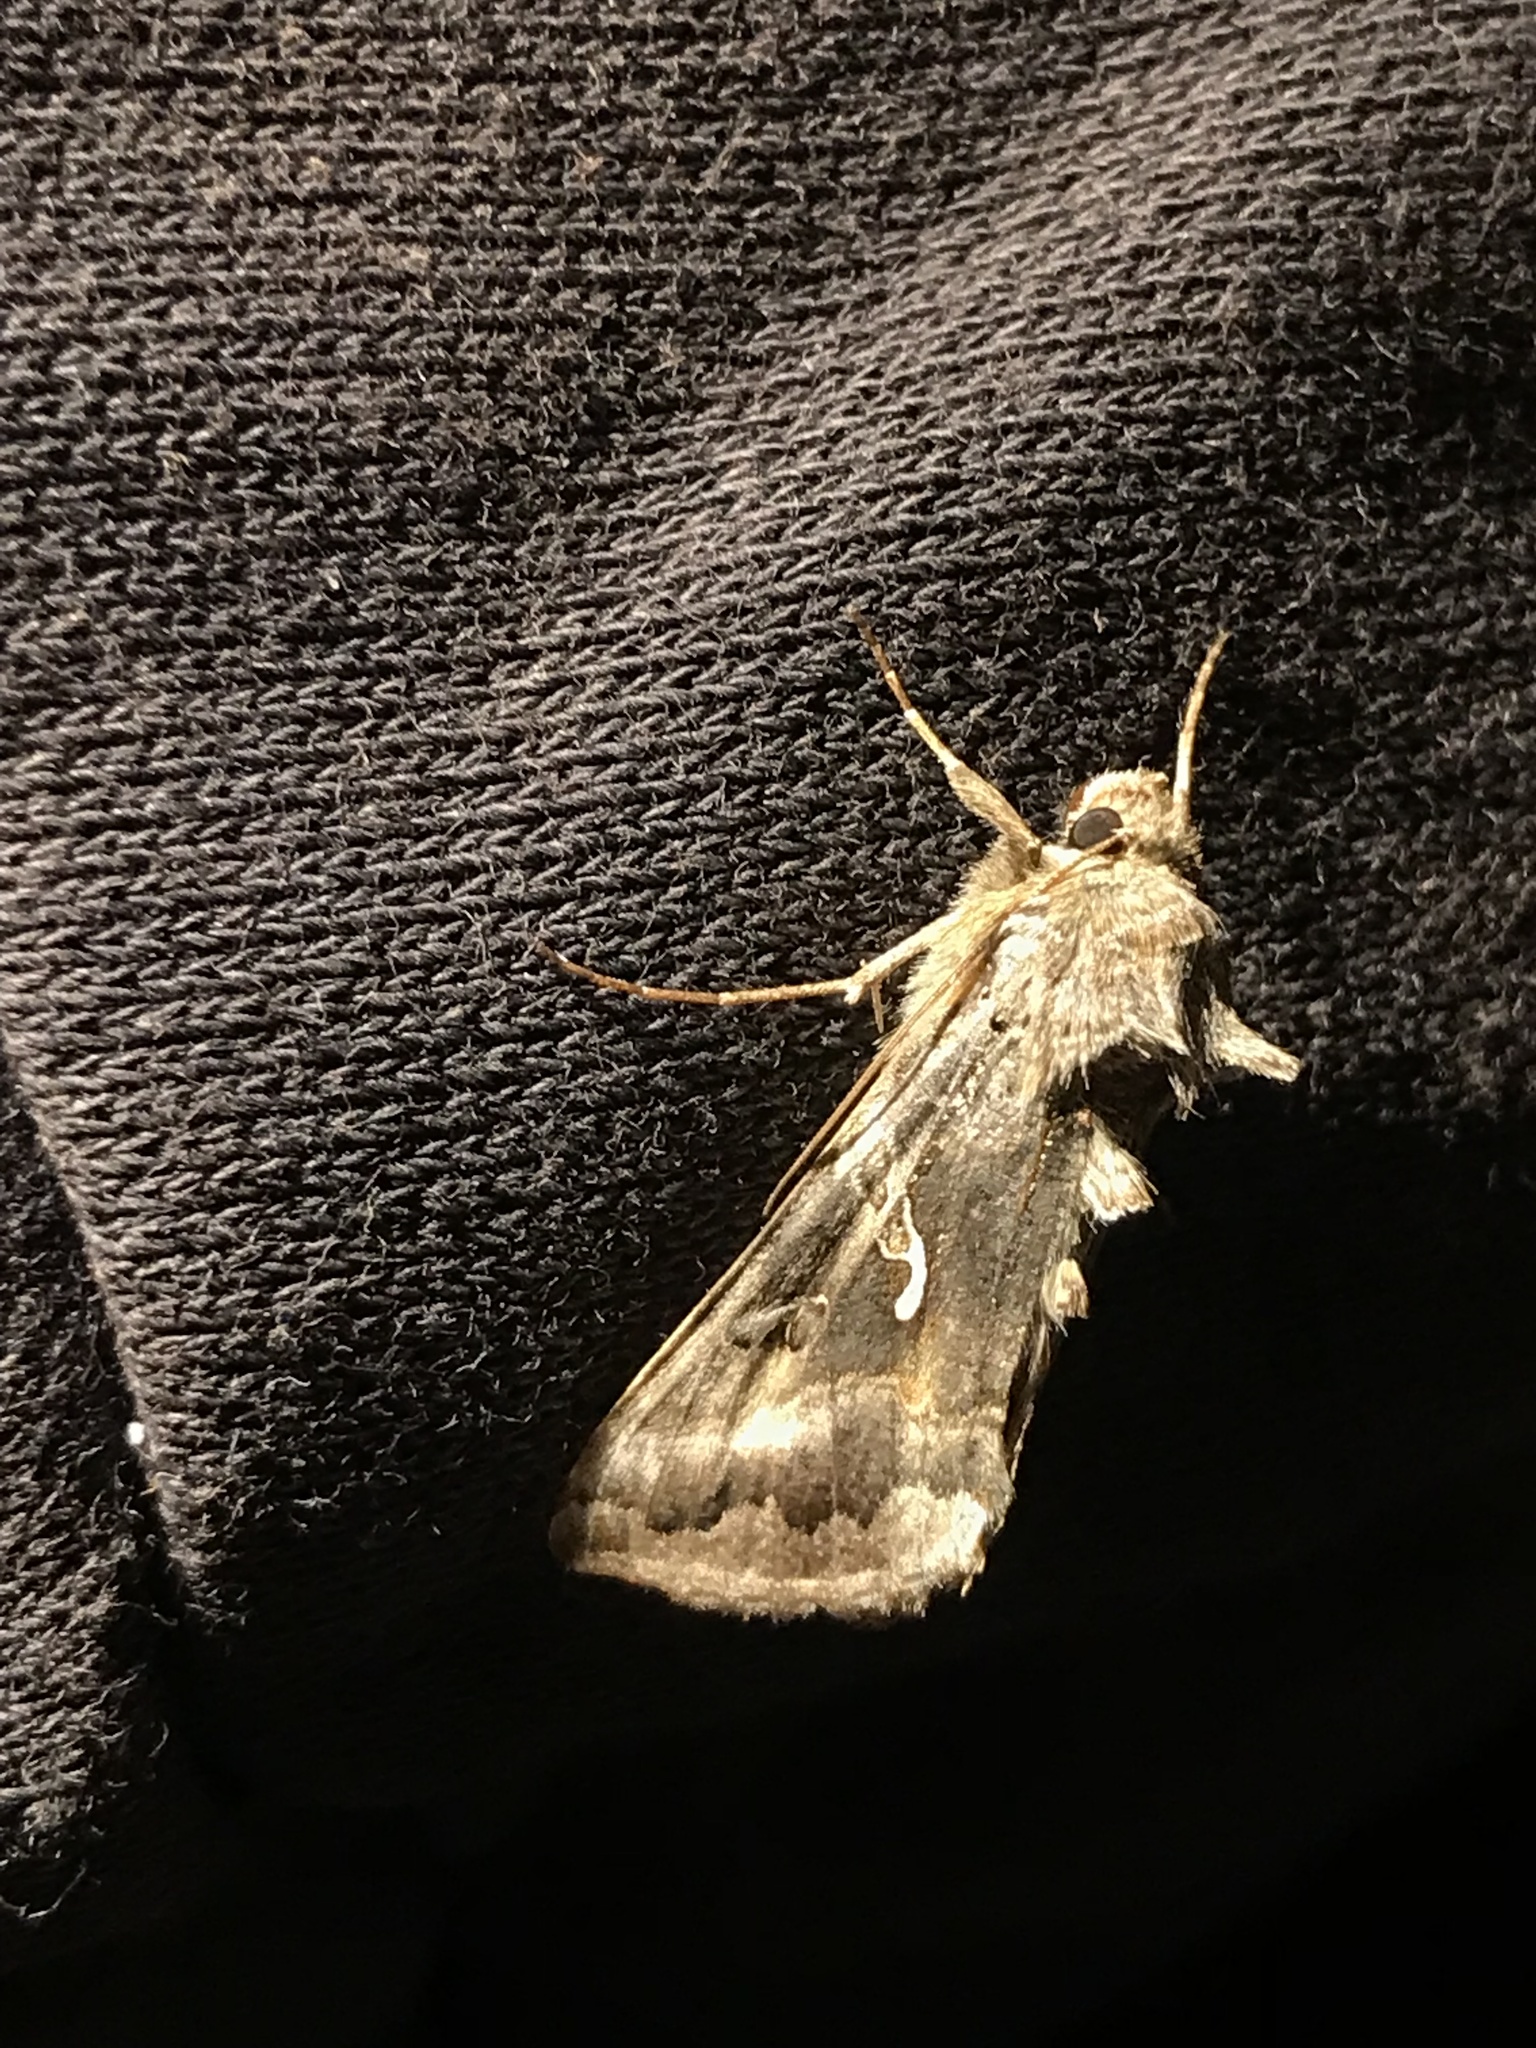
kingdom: Animalia
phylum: Arthropoda
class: Insecta
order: Lepidoptera
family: Noctuidae
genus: Autographa
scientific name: Autographa gamma
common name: Silver y
